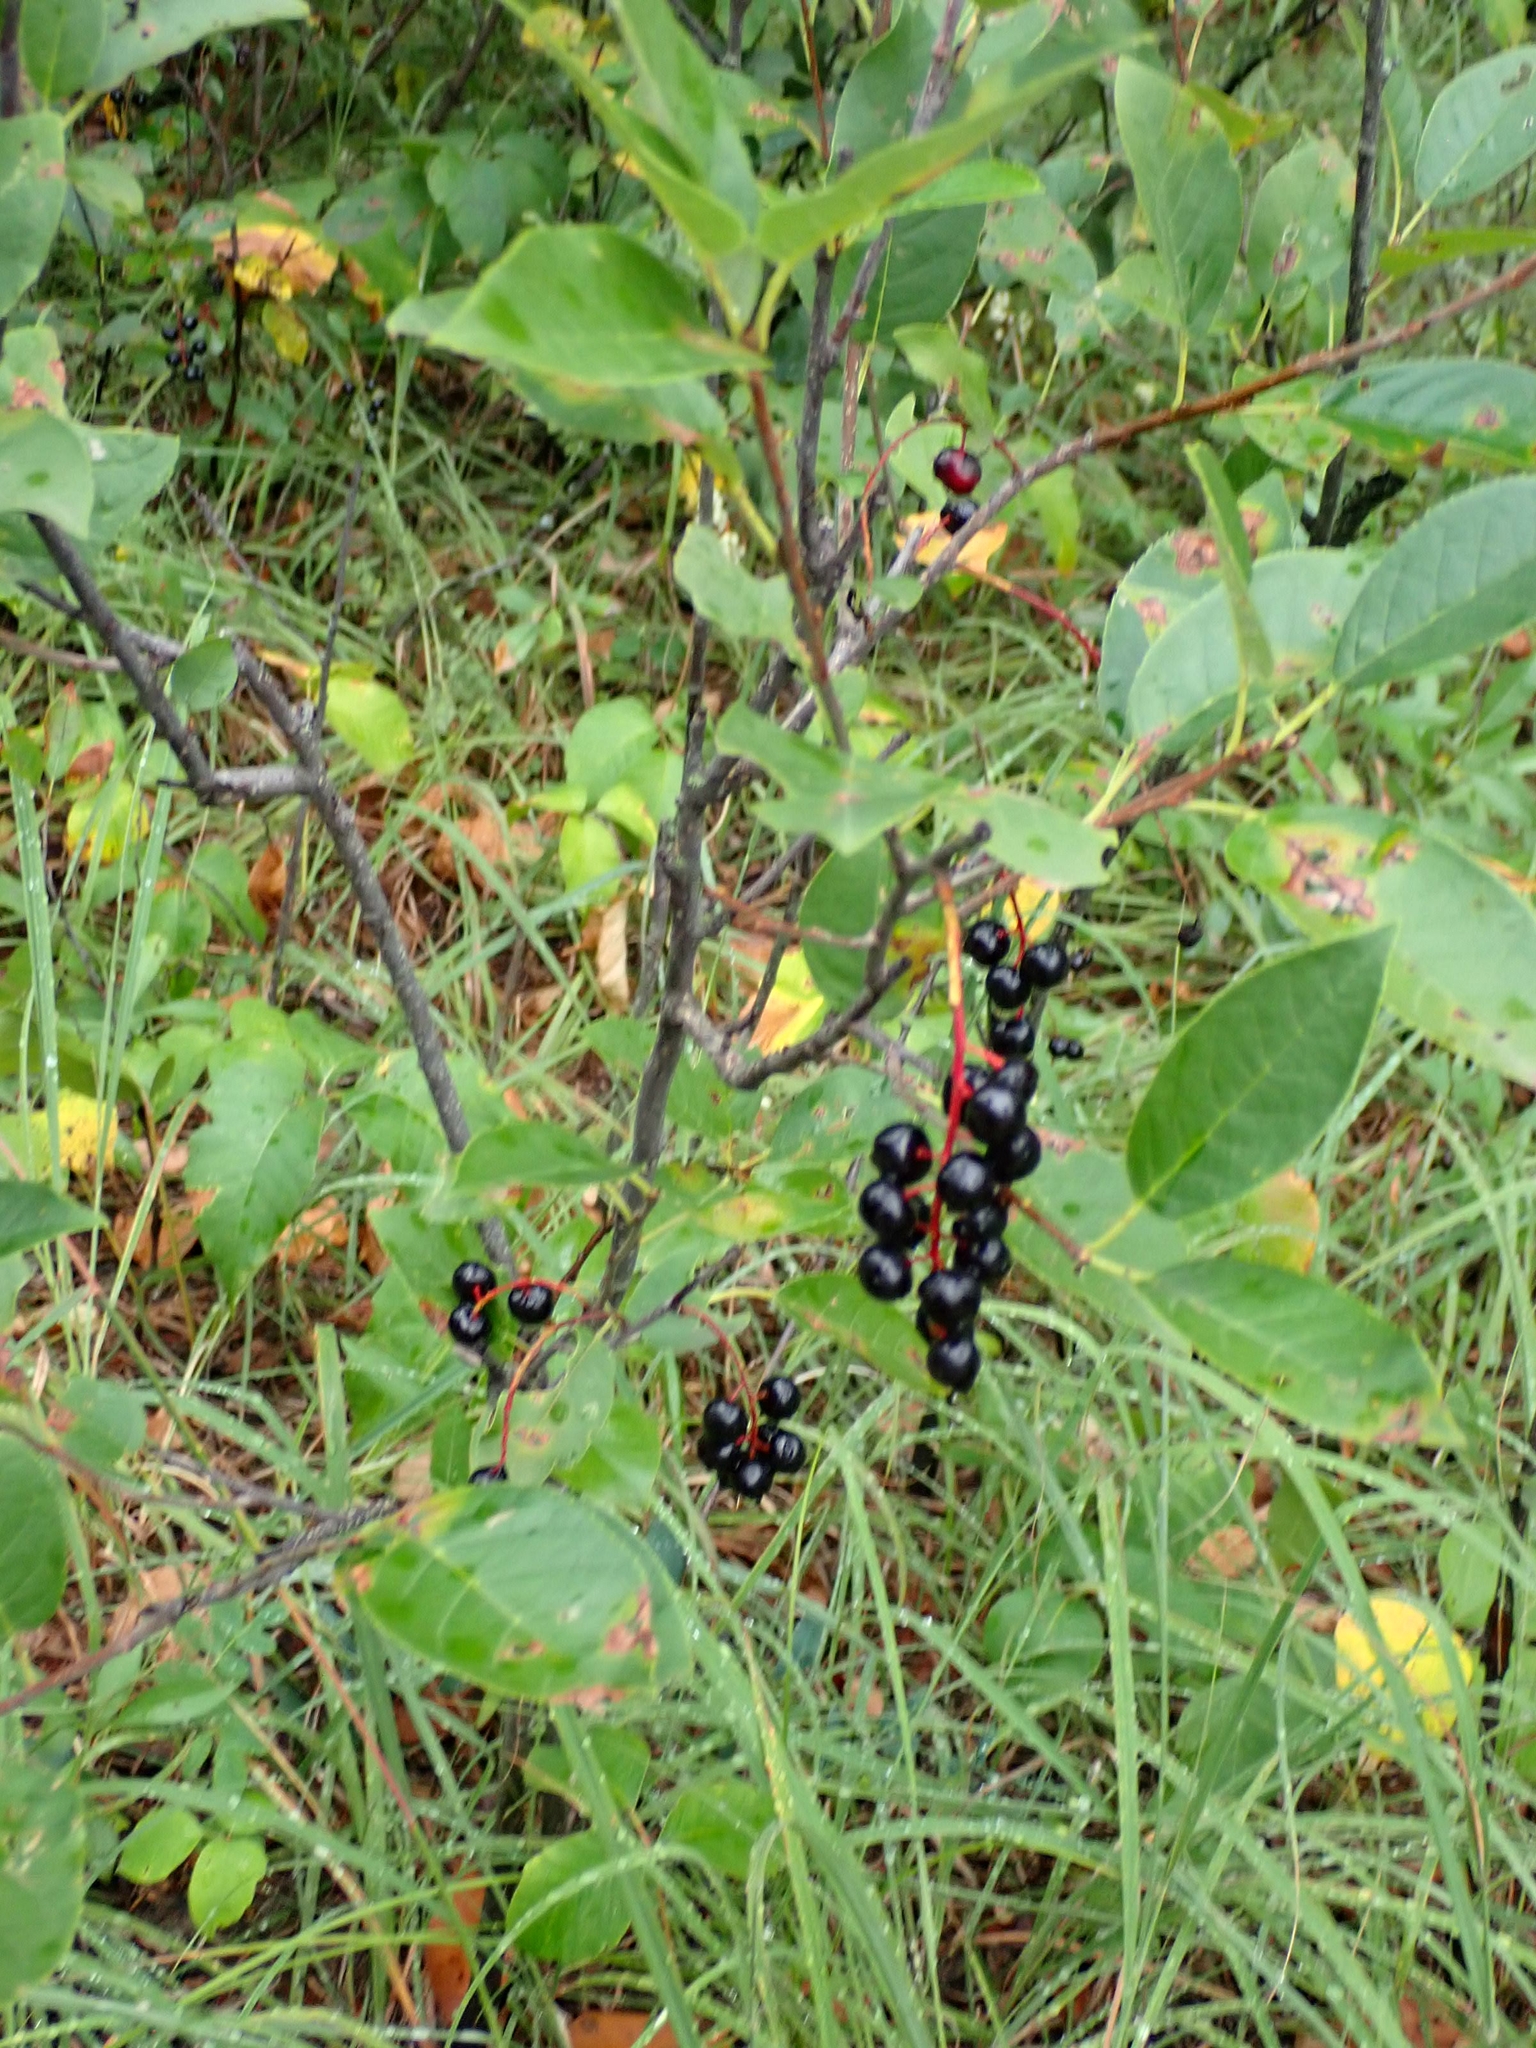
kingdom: Plantae
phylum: Tracheophyta
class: Magnoliopsida
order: Rosales
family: Rosaceae
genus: Prunus
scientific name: Prunus virginiana
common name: Chokecherry
